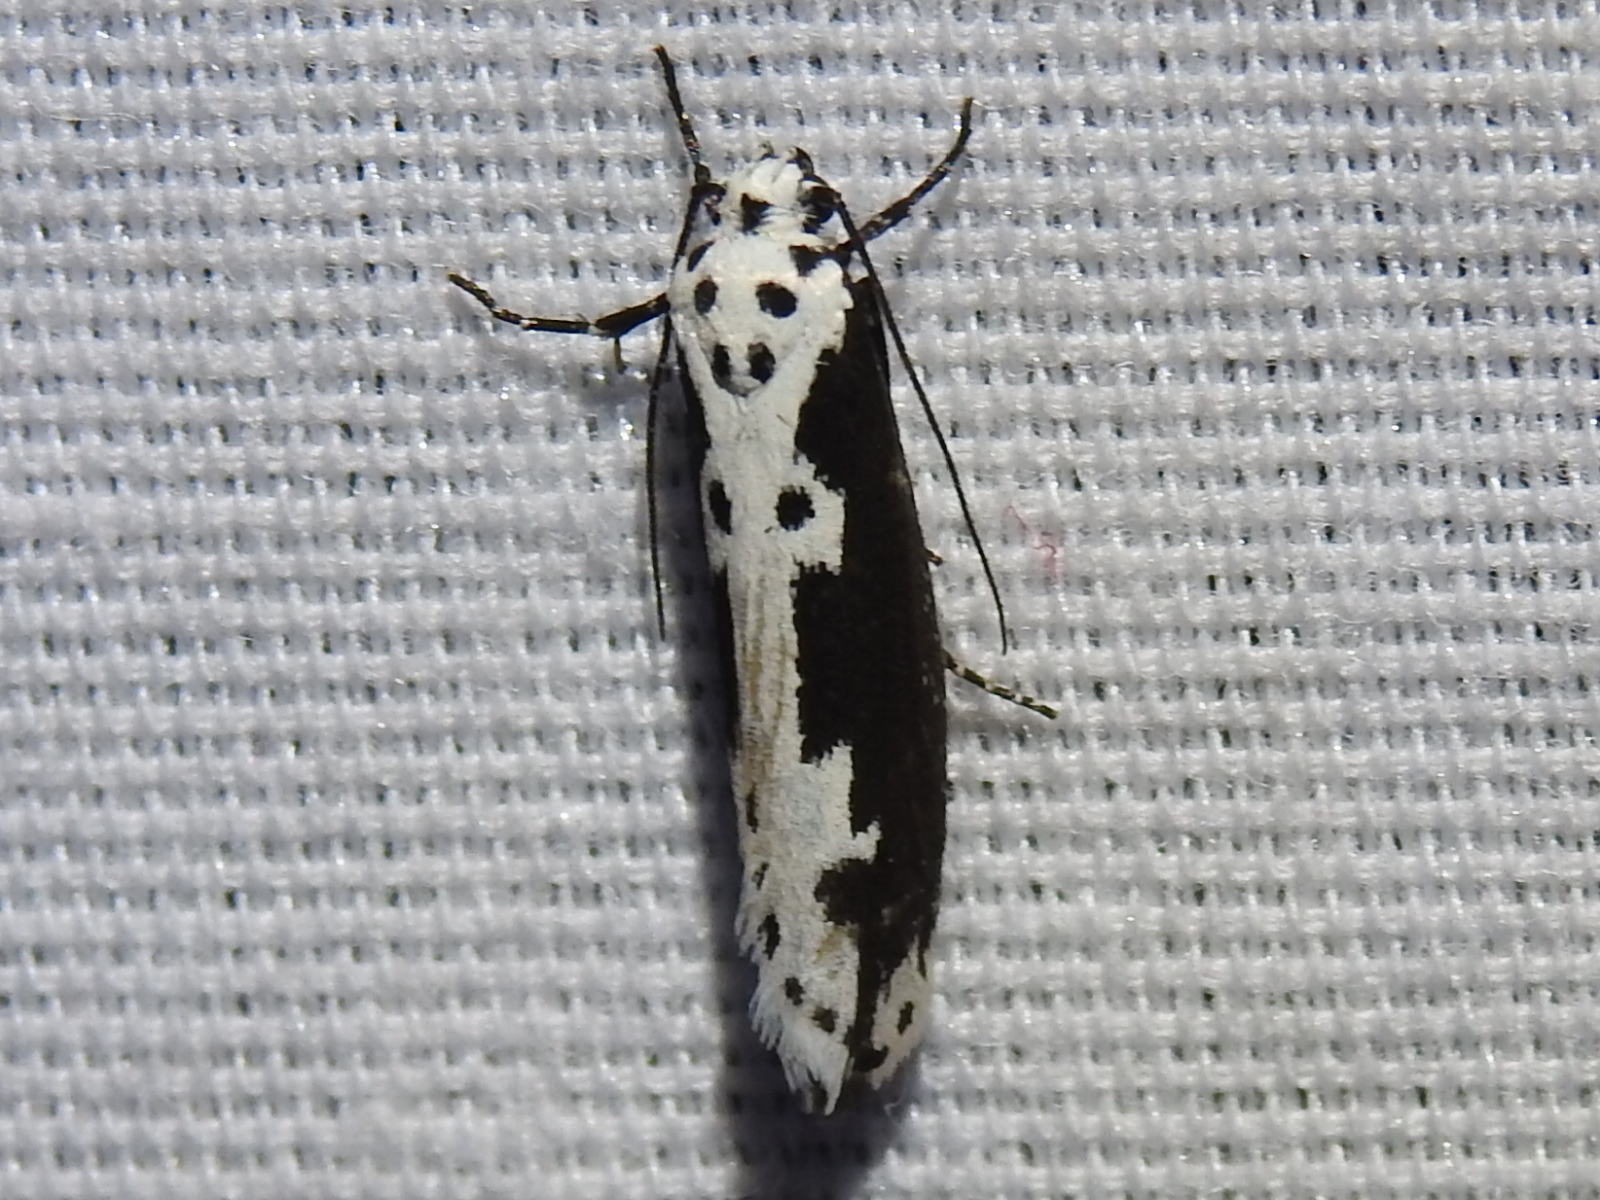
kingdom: Animalia
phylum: Arthropoda
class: Insecta
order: Lepidoptera
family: Ethmiidae
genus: Ethmia
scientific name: Ethmia semilugens
